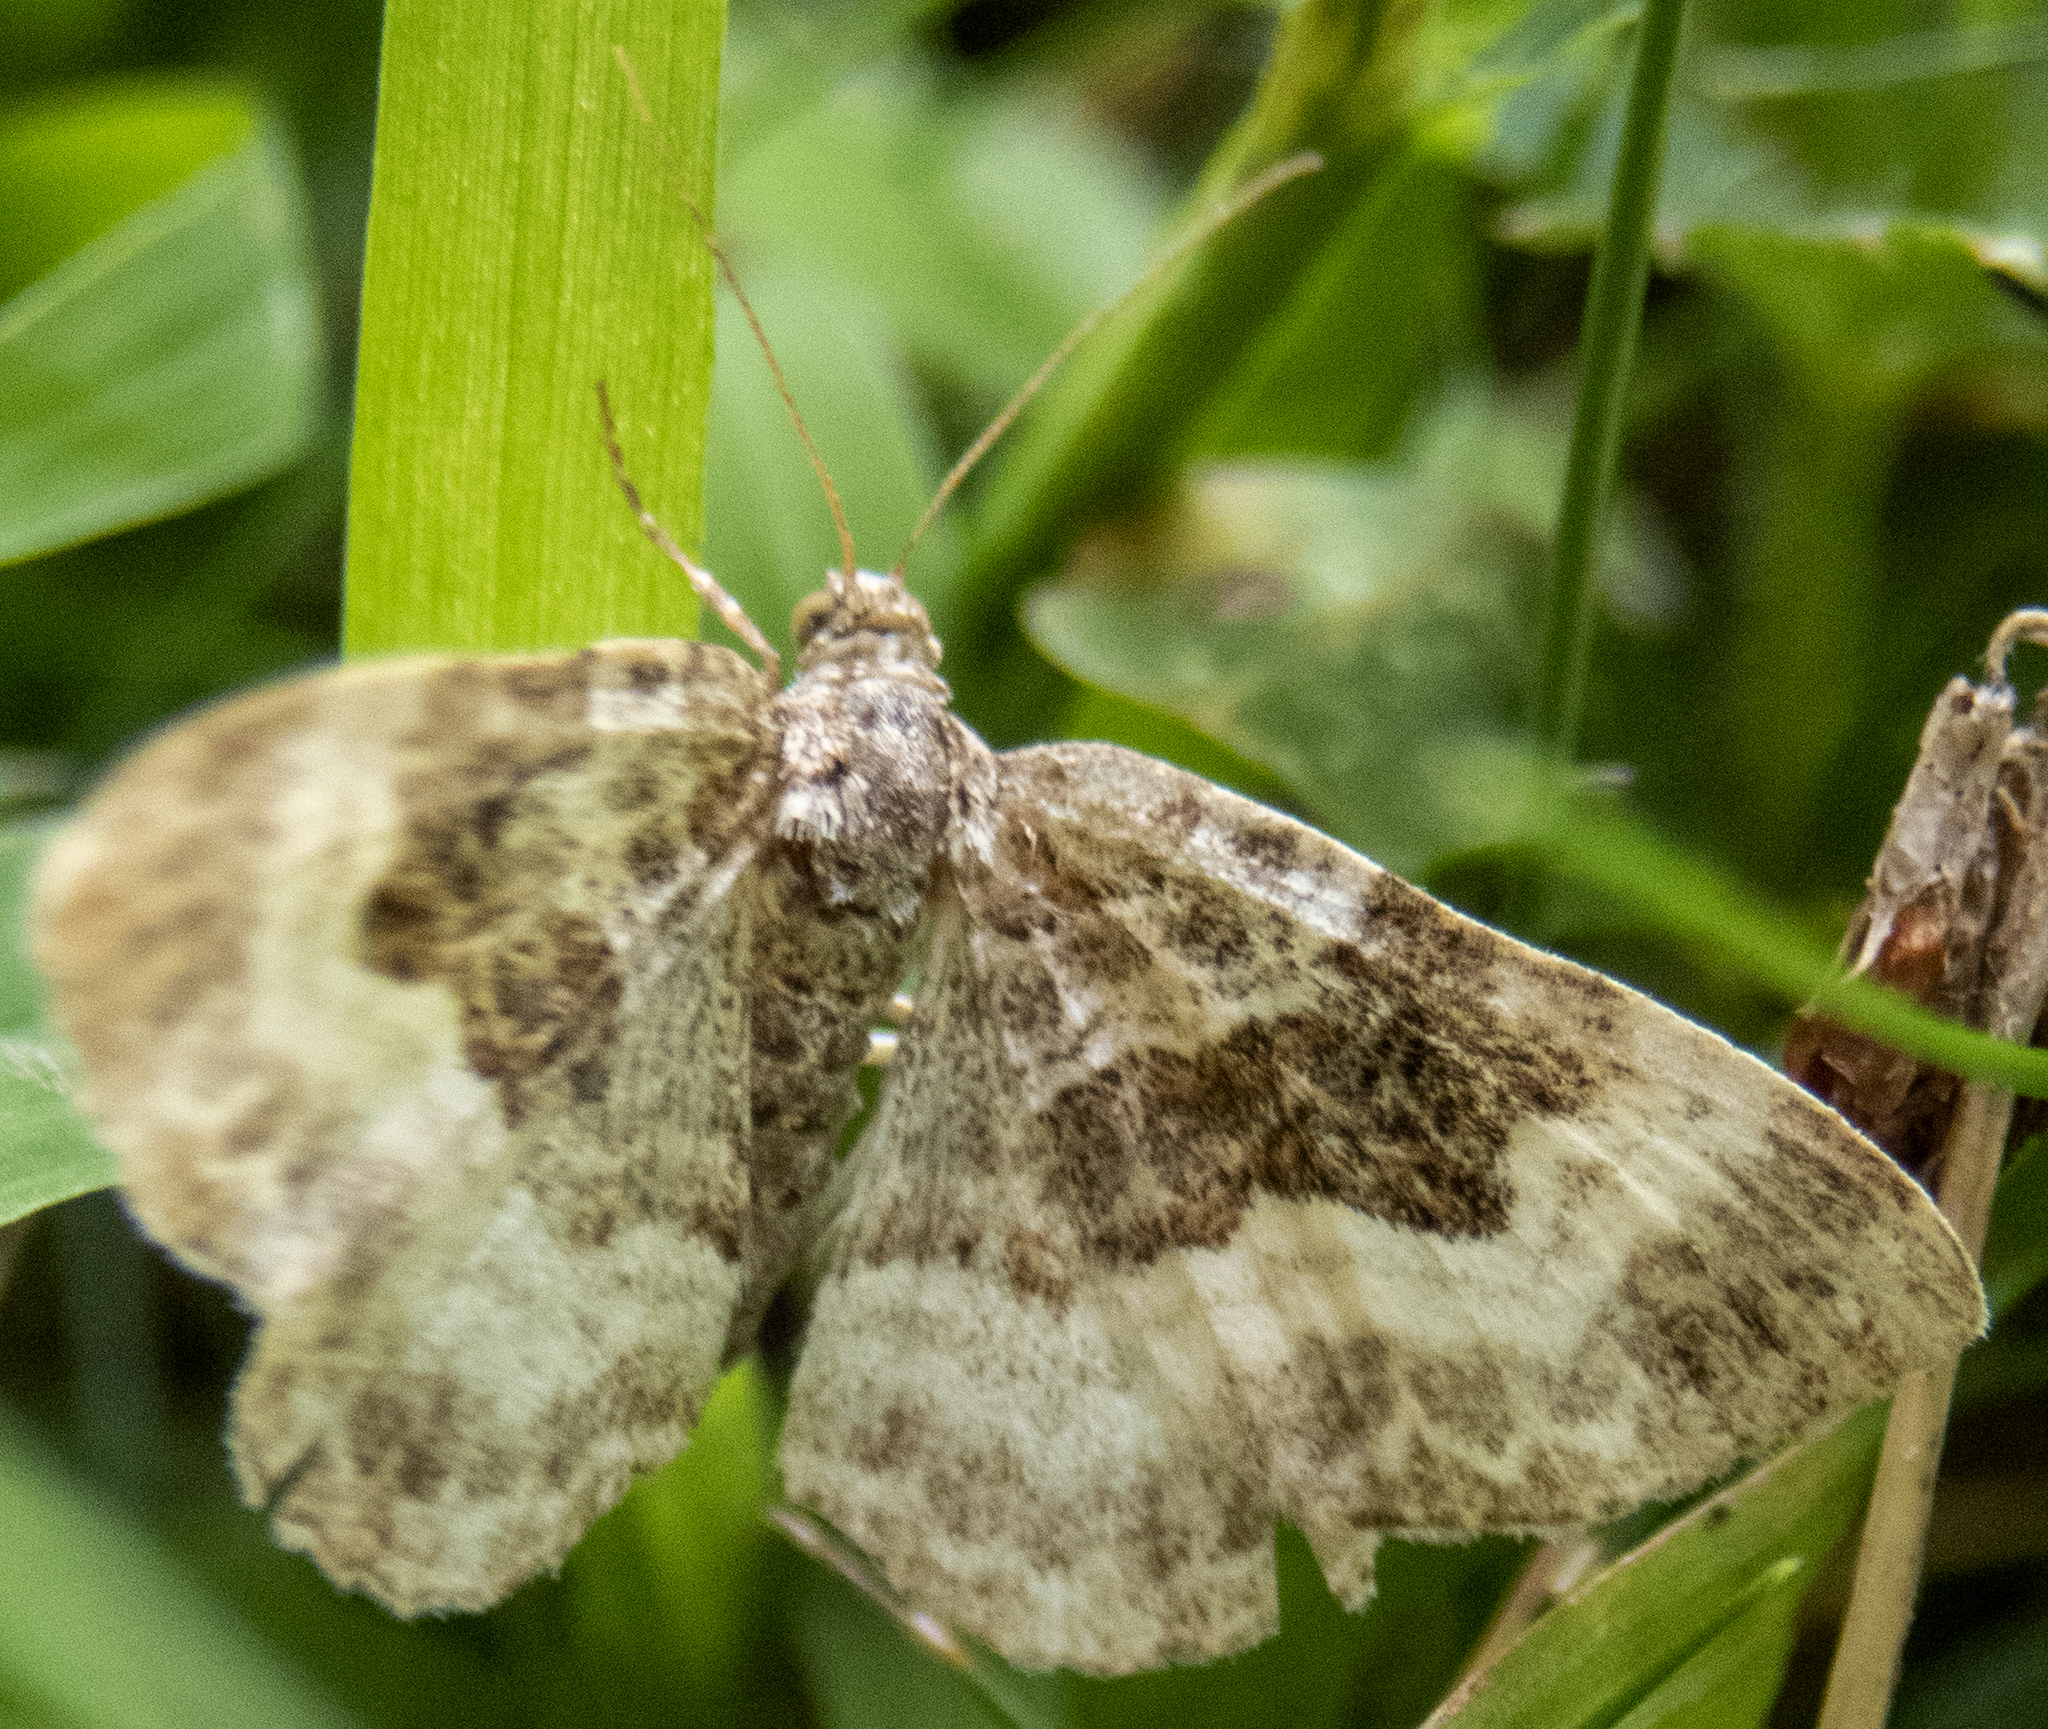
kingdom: Animalia
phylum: Arthropoda
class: Insecta
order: Lepidoptera
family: Geometridae
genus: Epirrhoe
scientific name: Epirrhoe alternata
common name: Common carpet
